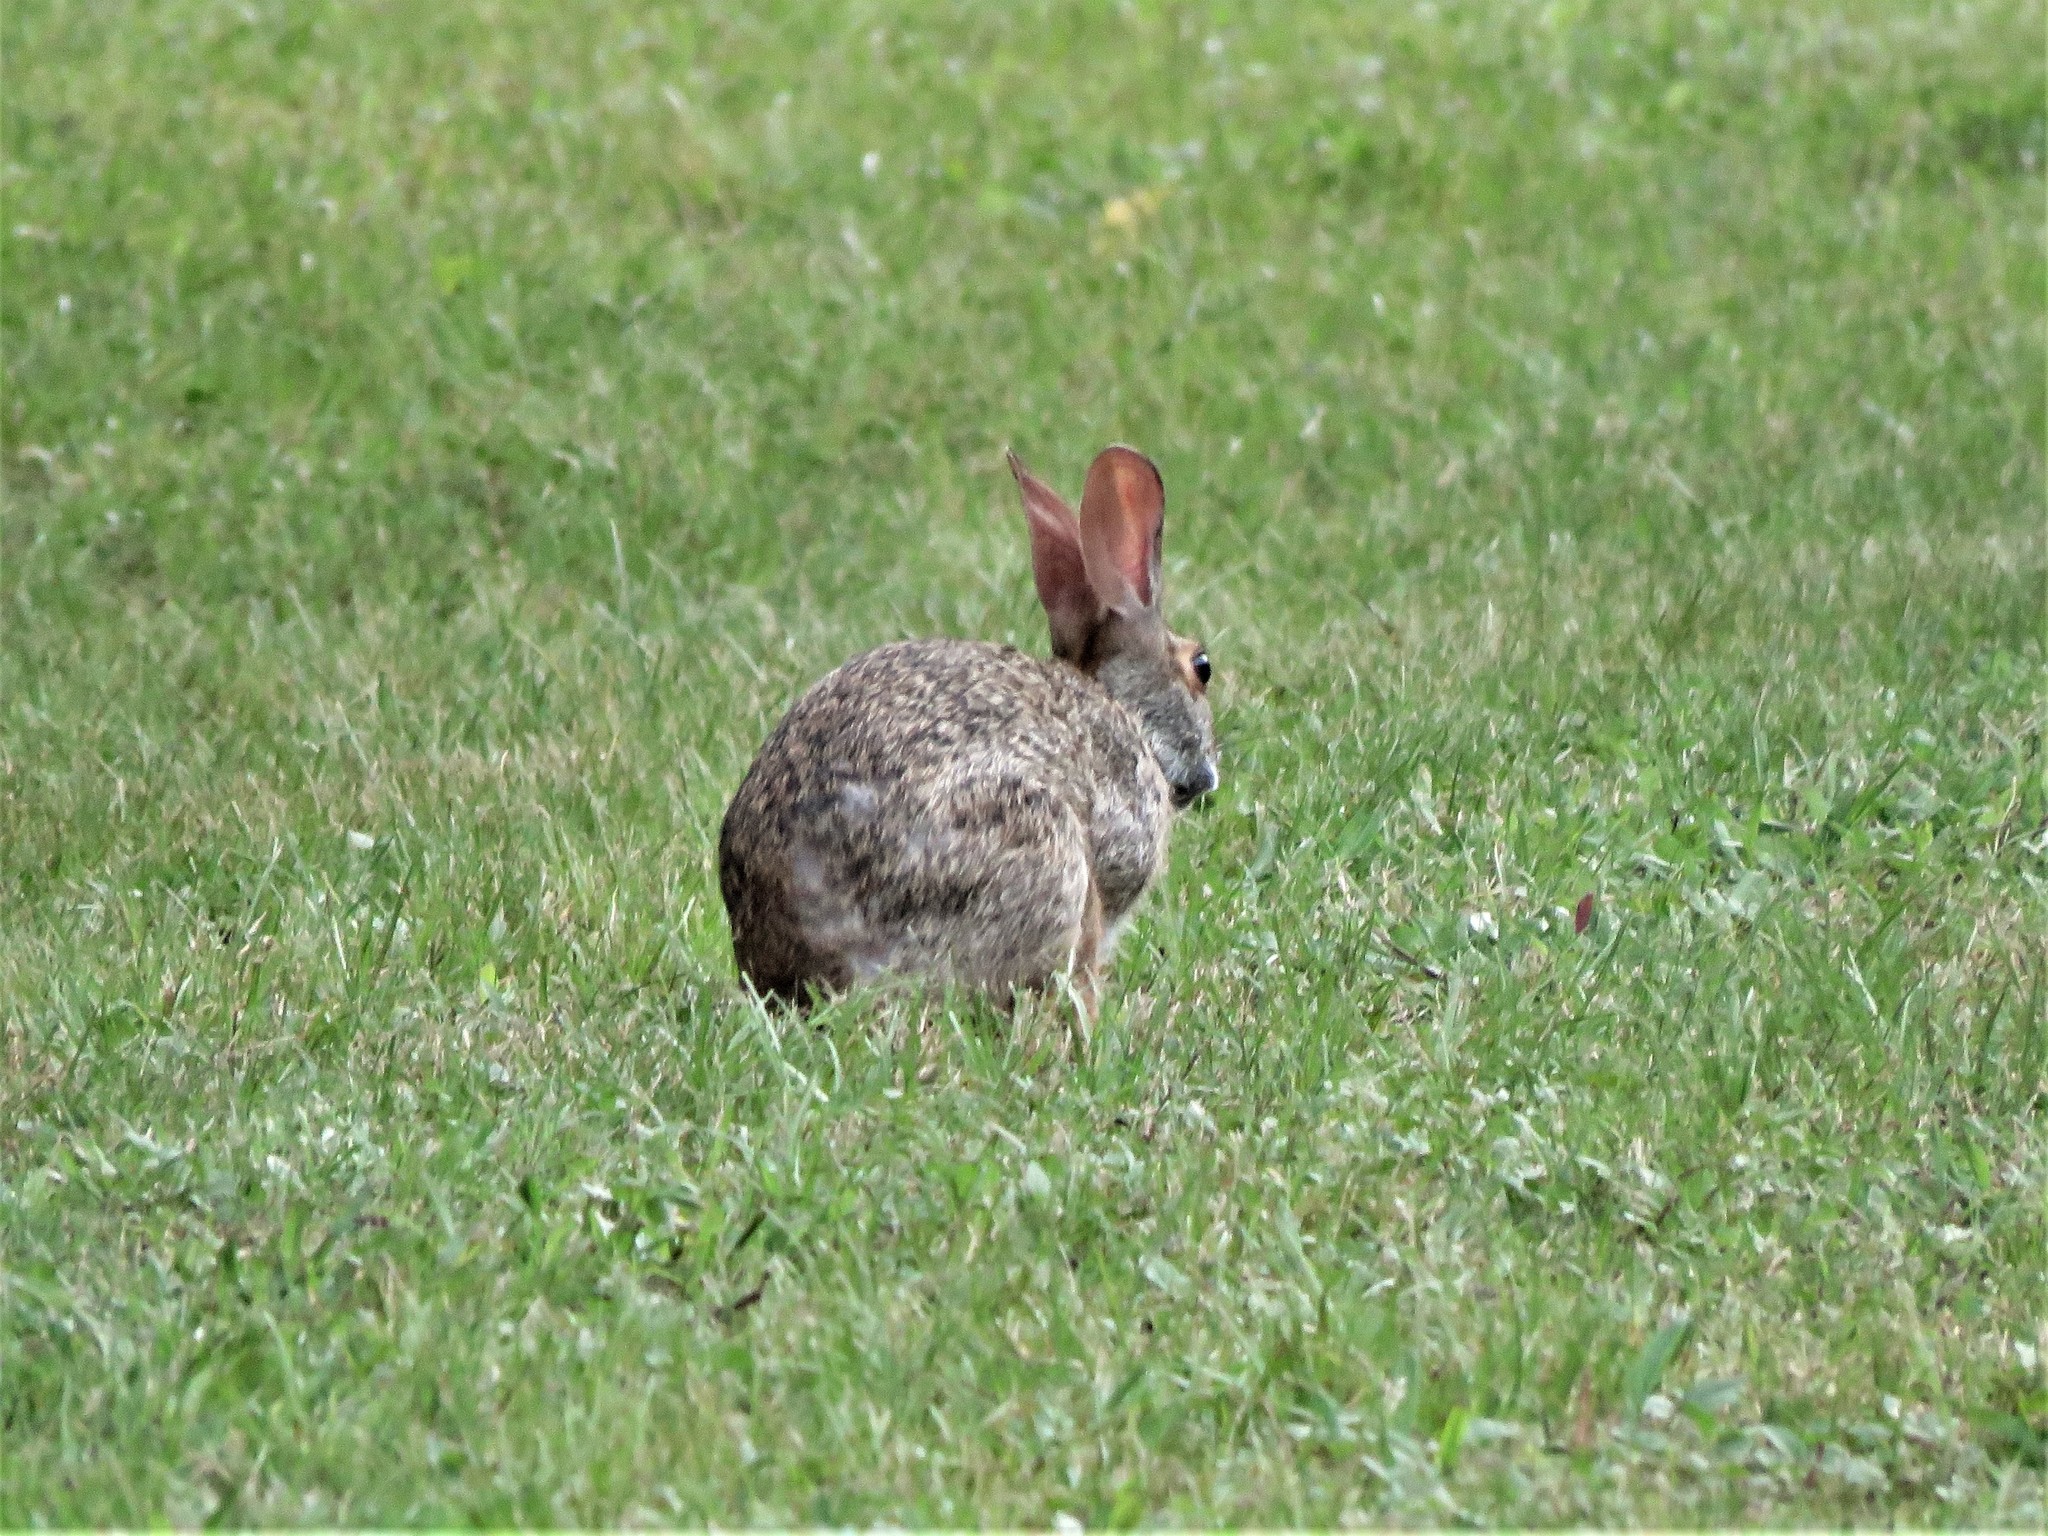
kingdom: Animalia
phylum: Chordata
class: Mammalia
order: Lagomorpha
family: Leporidae
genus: Sylvilagus
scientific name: Sylvilagus aquaticus
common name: Swamp rabbit
